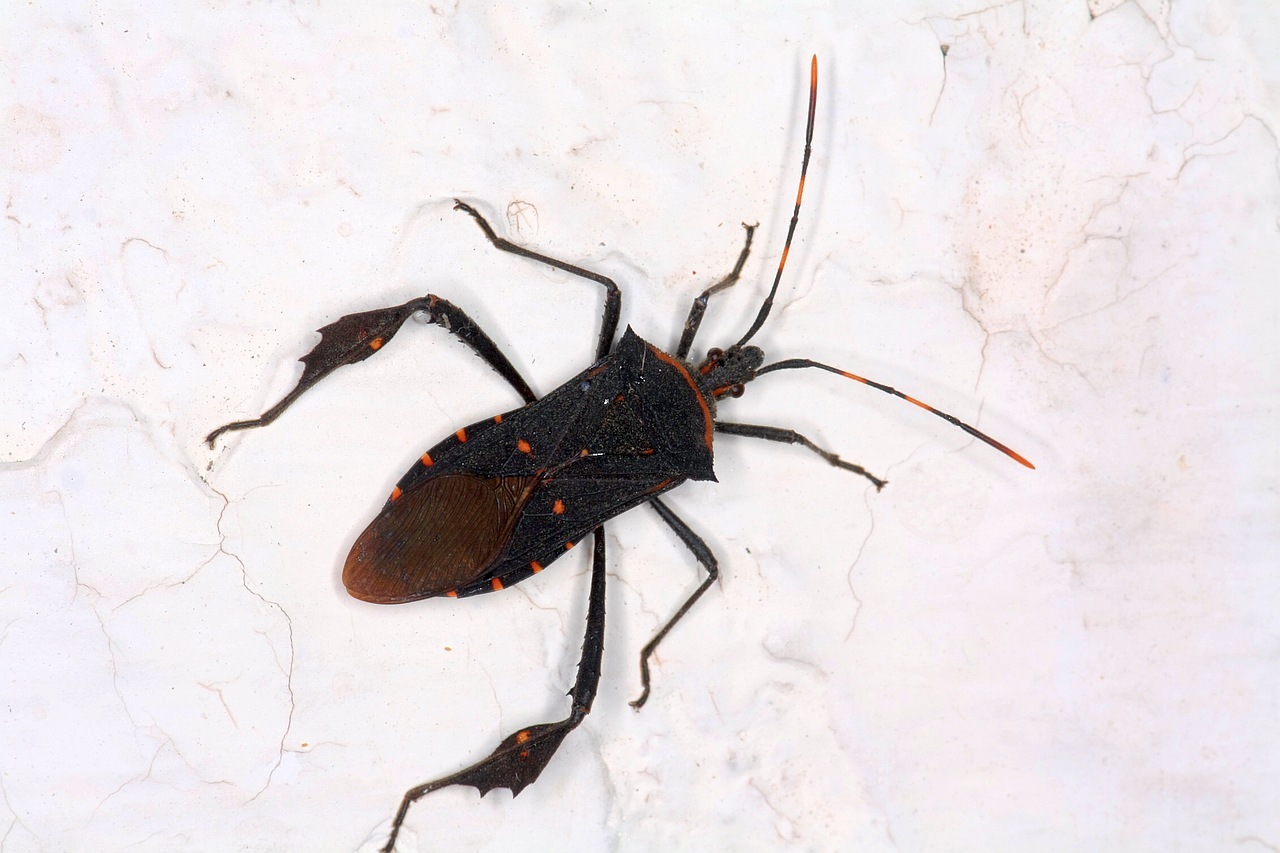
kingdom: Animalia
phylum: Arthropoda
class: Insecta
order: Hemiptera
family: Coreidae
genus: Leptoglossus
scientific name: Leptoglossus gonagra
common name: Citron bug
